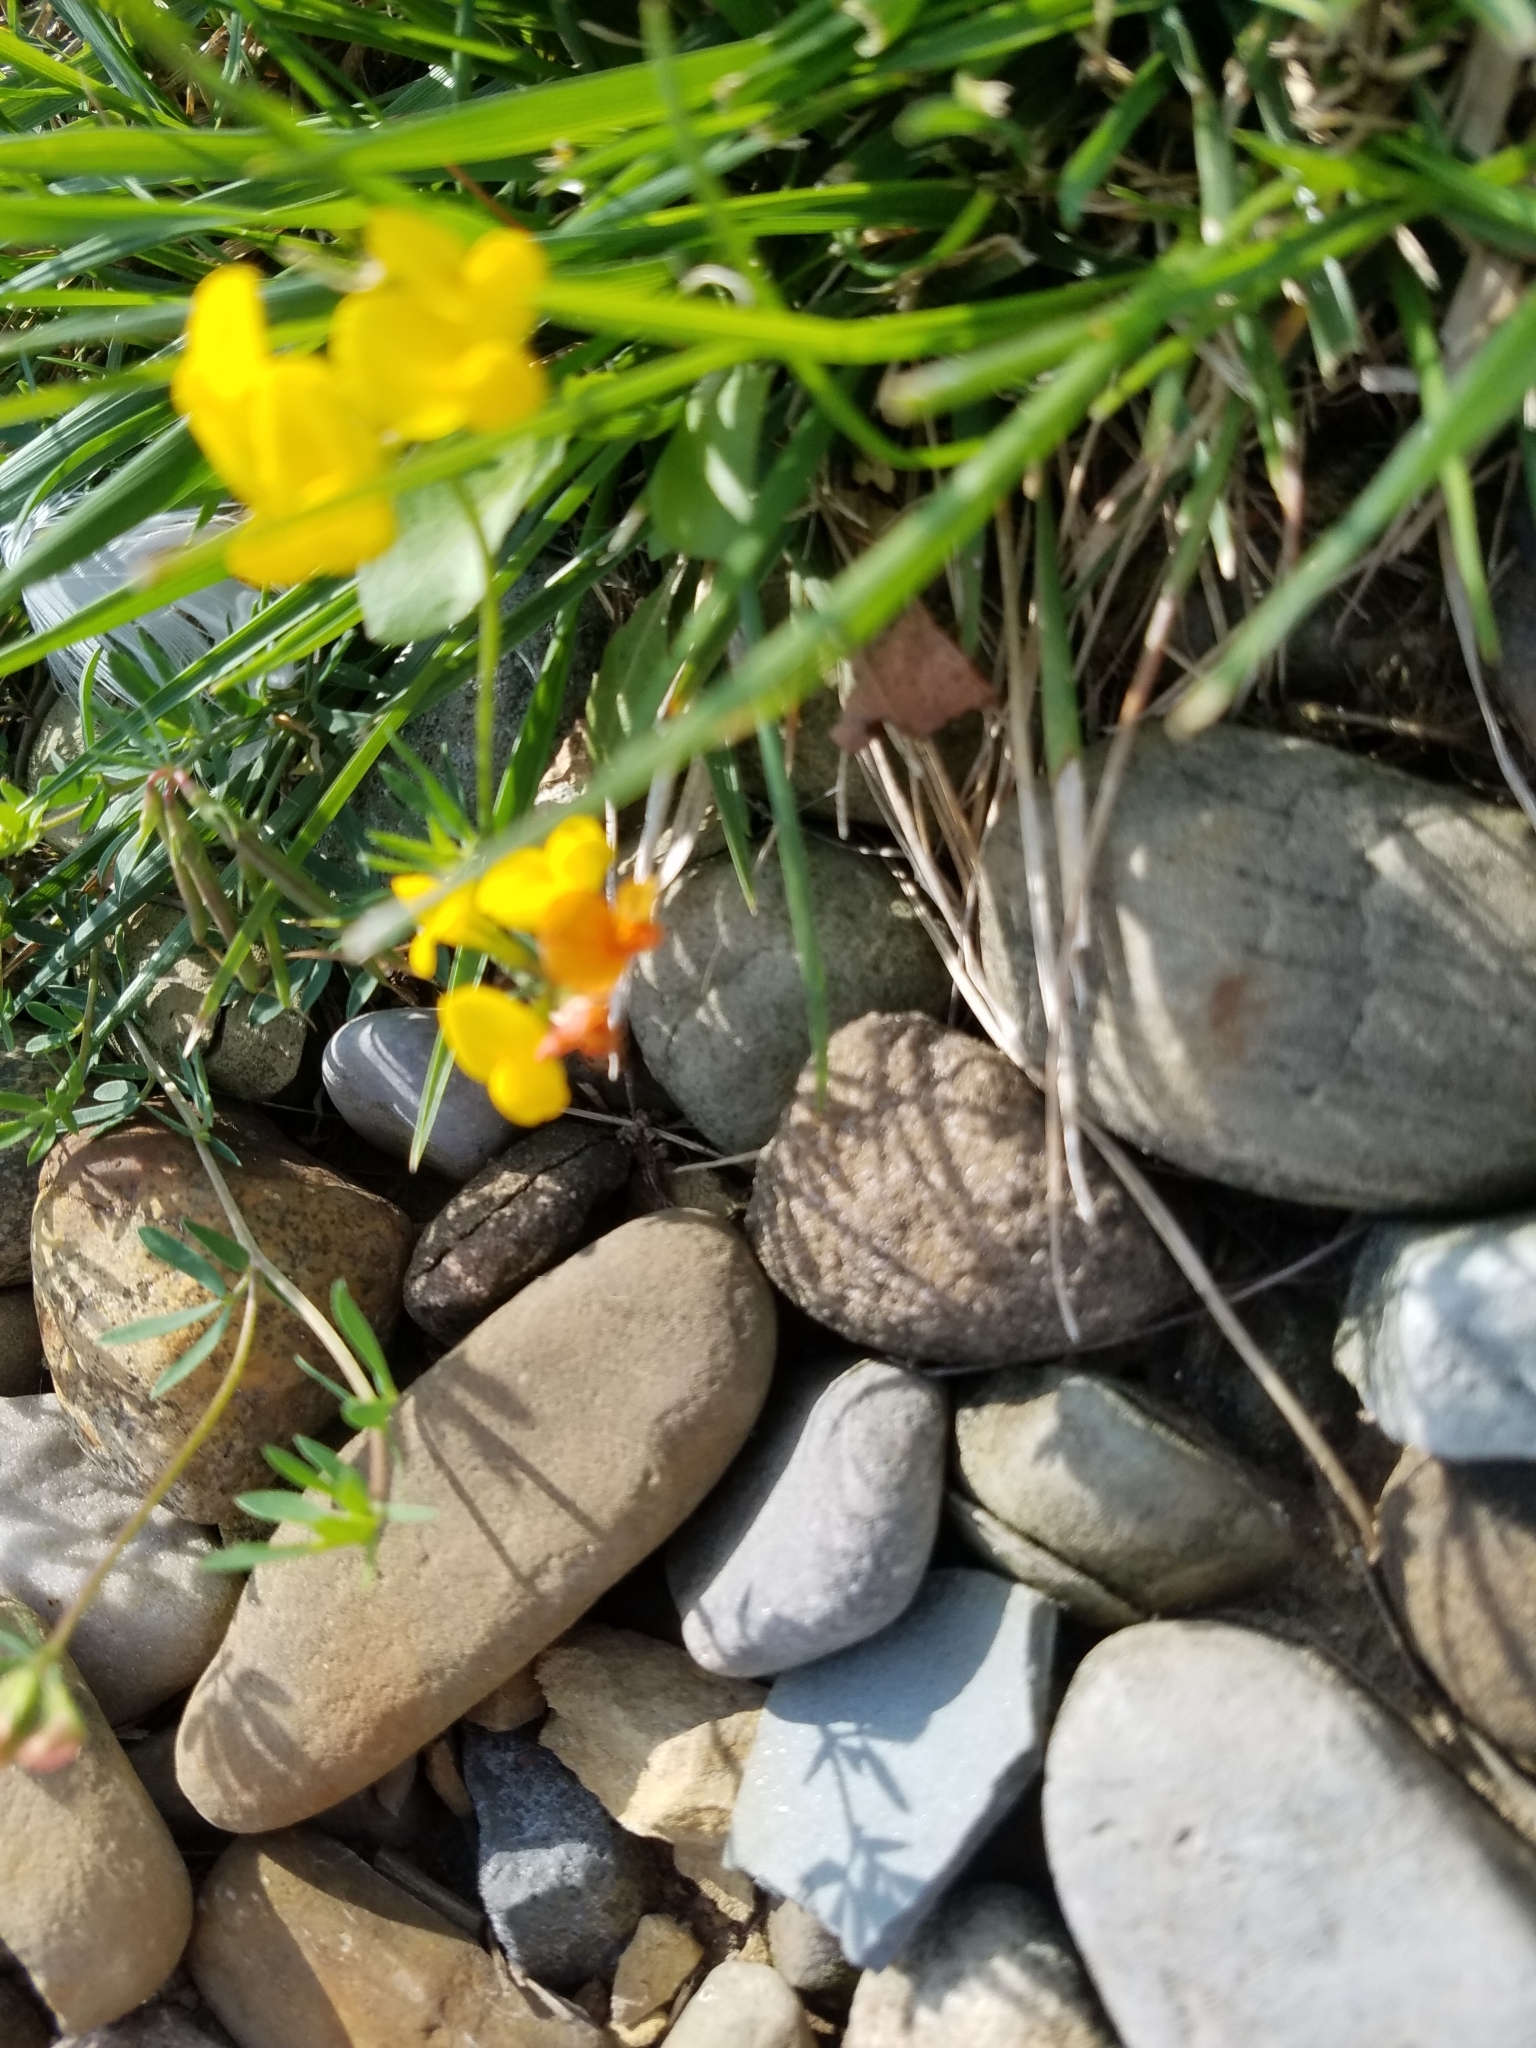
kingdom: Plantae
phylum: Tracheophyta
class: Magnoliopsida
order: Fabales
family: Fabaceae
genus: Lotus
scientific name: Lotus corniculatus
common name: Common bird's-foot-trefoil
